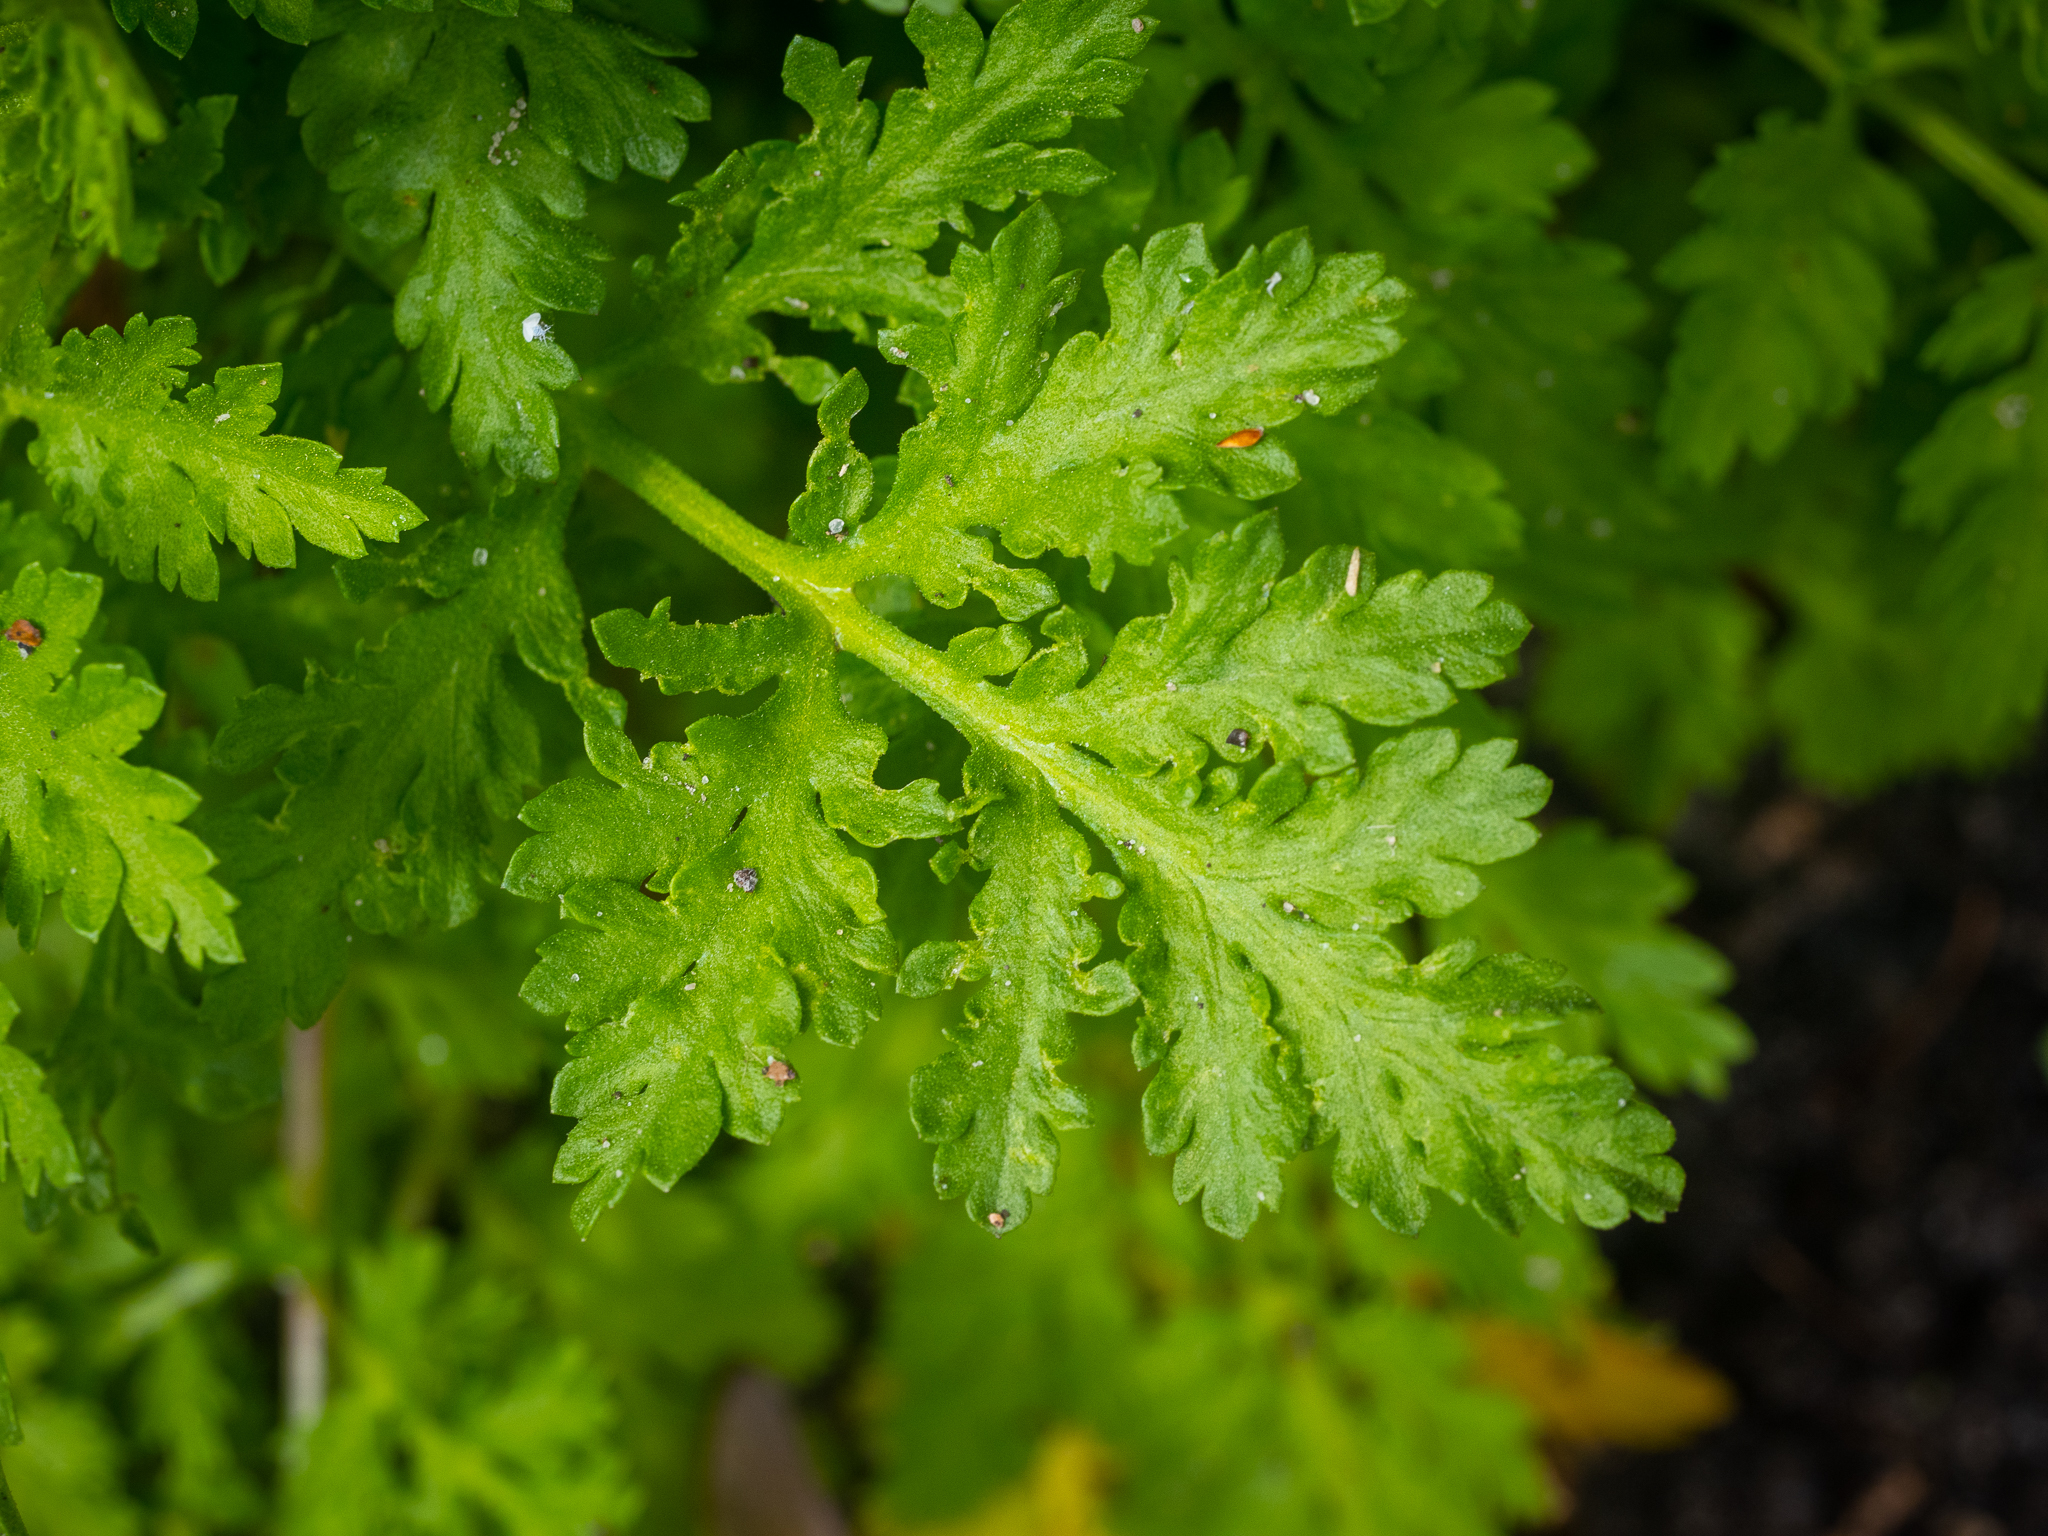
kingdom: Plantae
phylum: Tracheophyta
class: Magnoliopsida
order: Asterales
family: Asteraceae
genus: Tanacetum
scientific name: Tanacetum parthenium
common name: Feverfew
